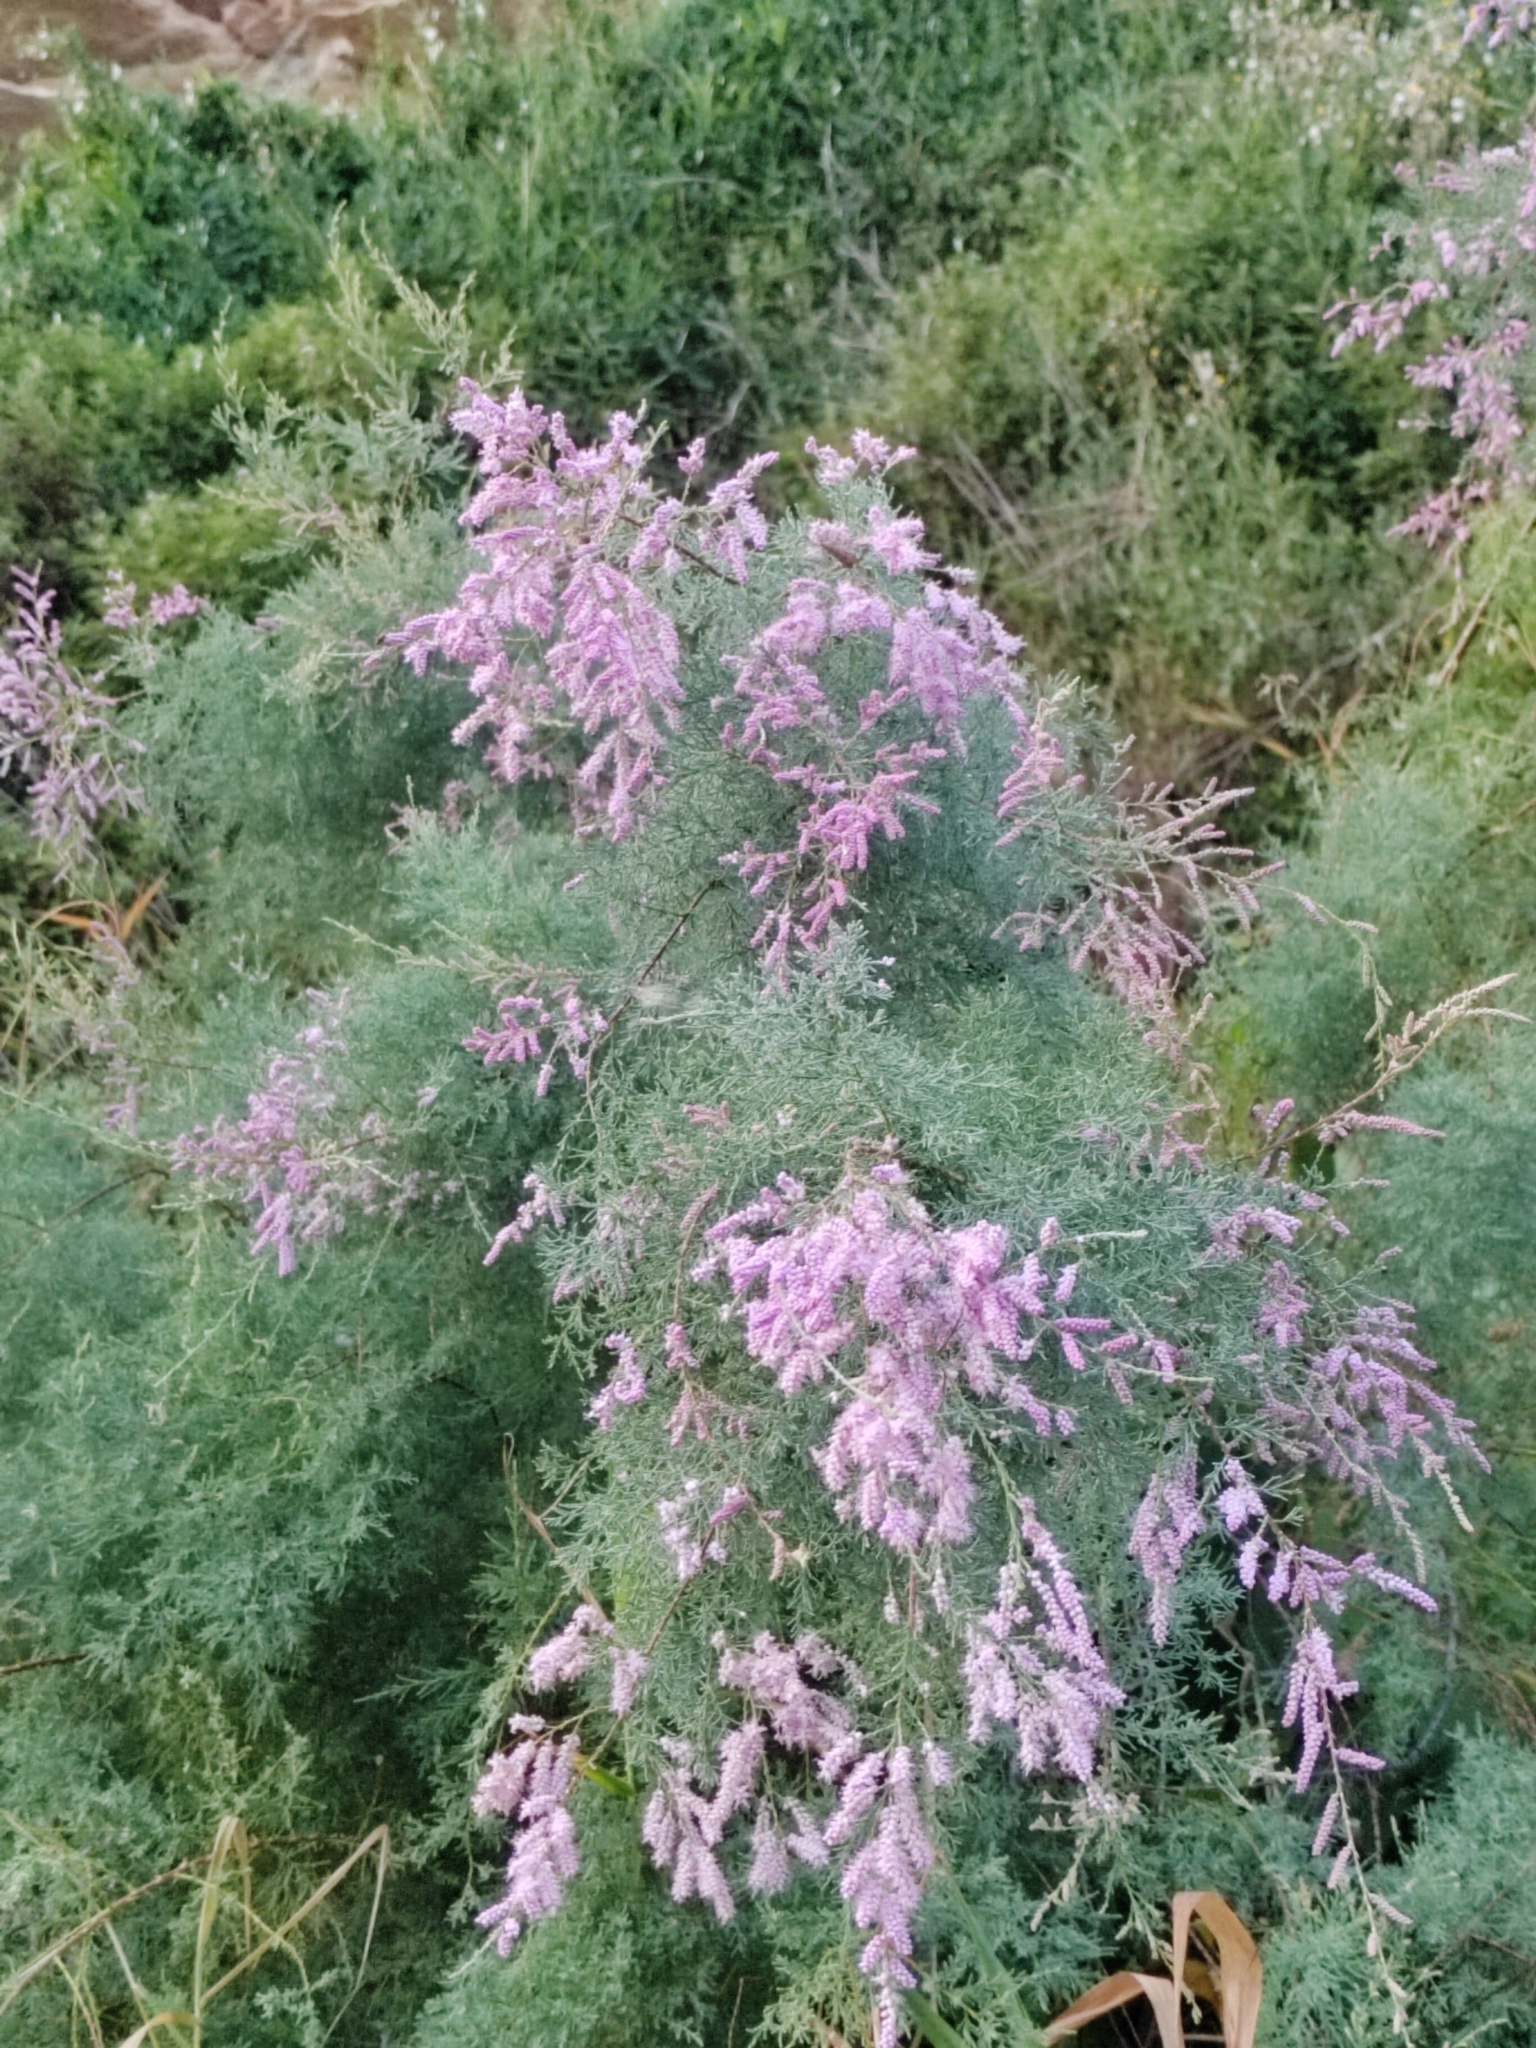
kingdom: Plantae
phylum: Tracheophyta
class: Magnoliopsida
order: Caryophyllales
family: Tamaricaceae
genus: Tamarix
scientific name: Tamarix ramosissima
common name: Pink tamarisk
